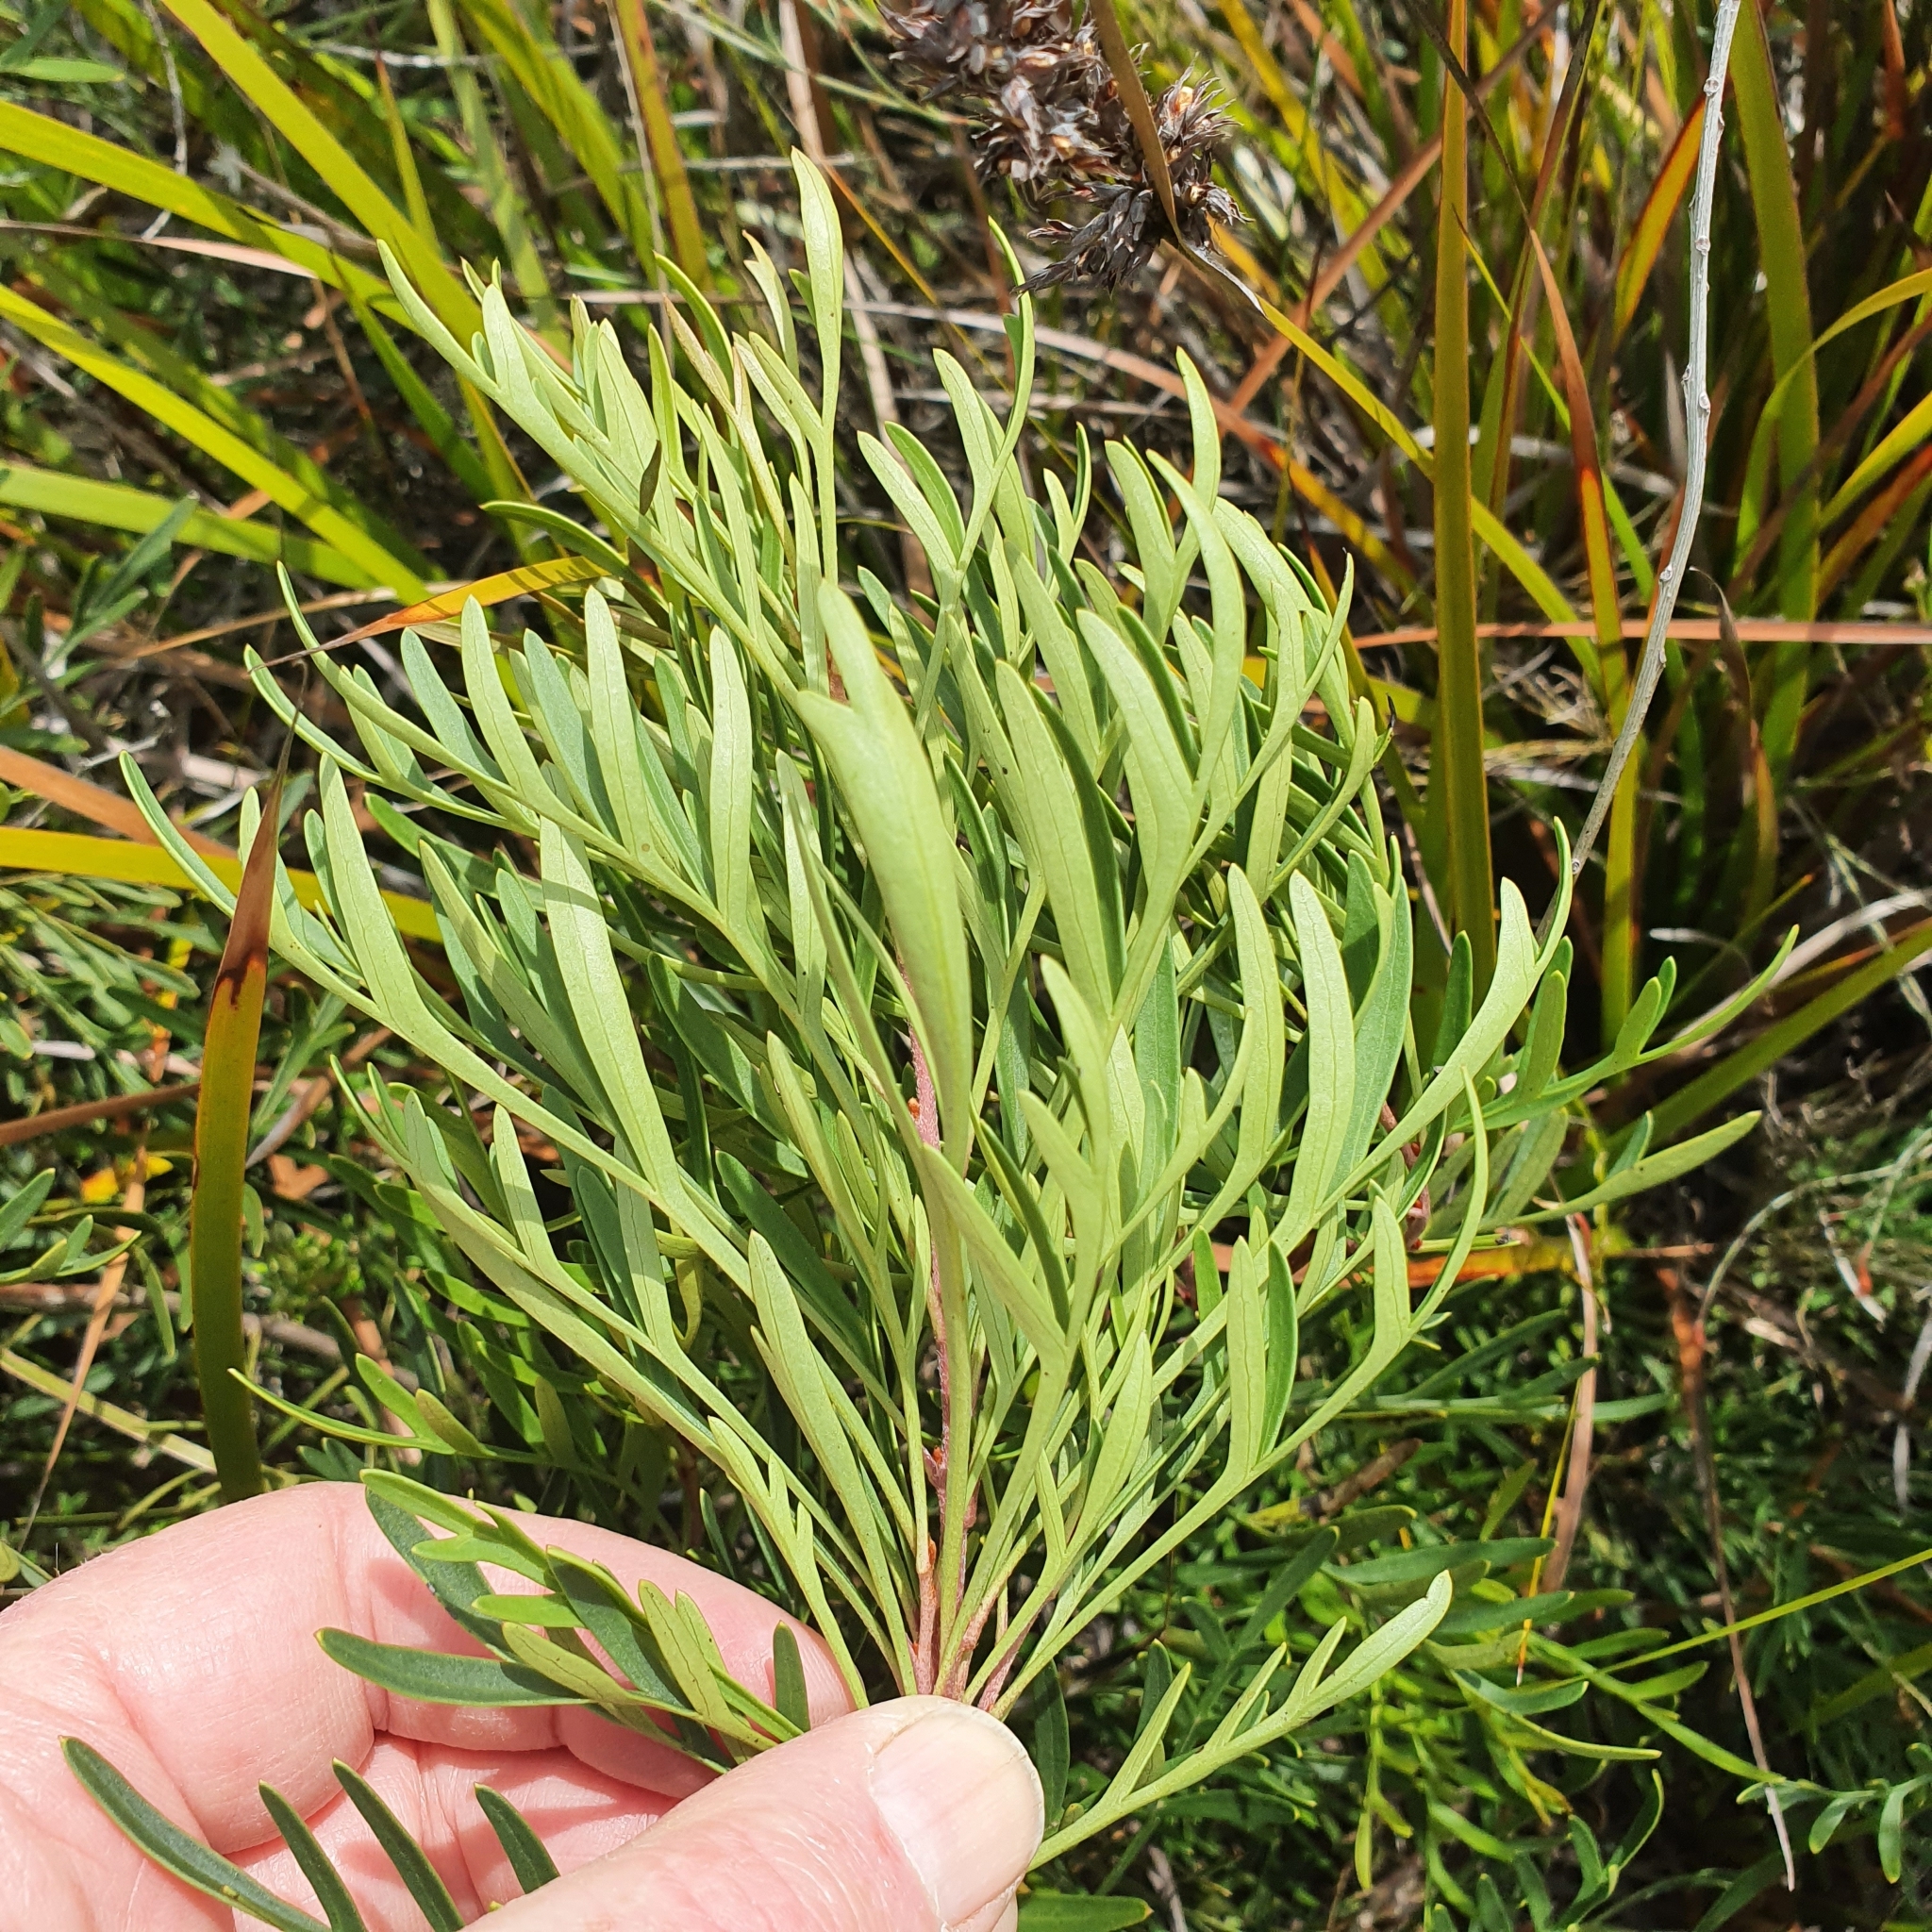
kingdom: Plantae
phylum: Tracheophyta
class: Magnoliopsida
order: Proteales
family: Proteaceae
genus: Lomatia
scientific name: Lomatia tinctoria
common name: Guitar plant
